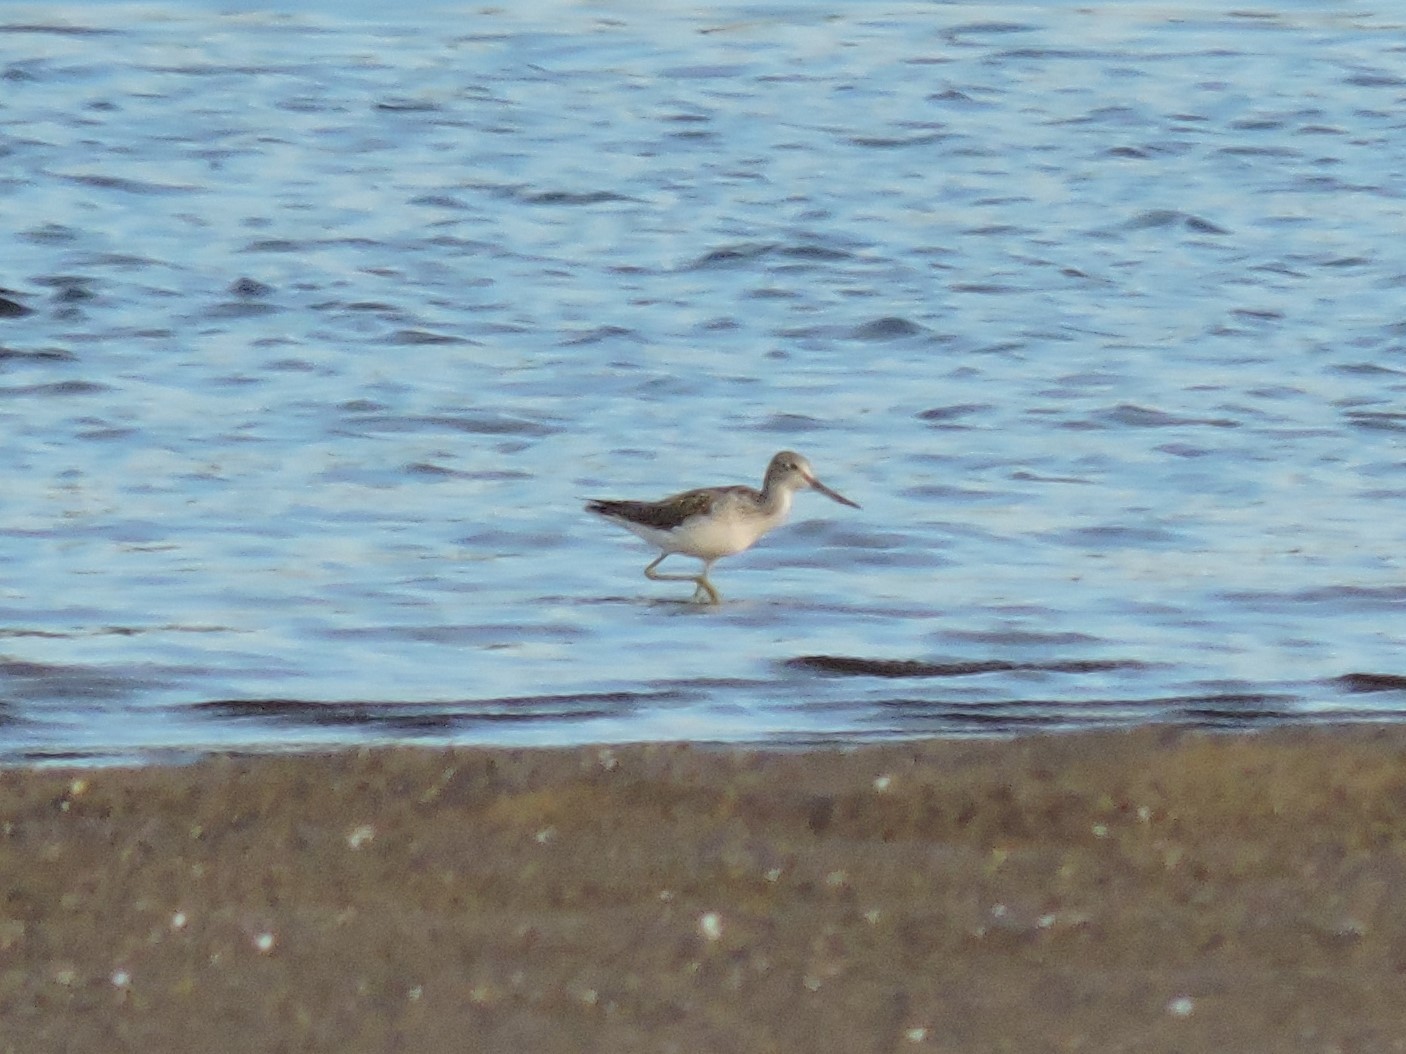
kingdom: Animalia
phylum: Chordata
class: Aves
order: Charadriiformes
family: Scolopacidae
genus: Tringa
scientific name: Tringa nebularia
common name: Common greenshank
